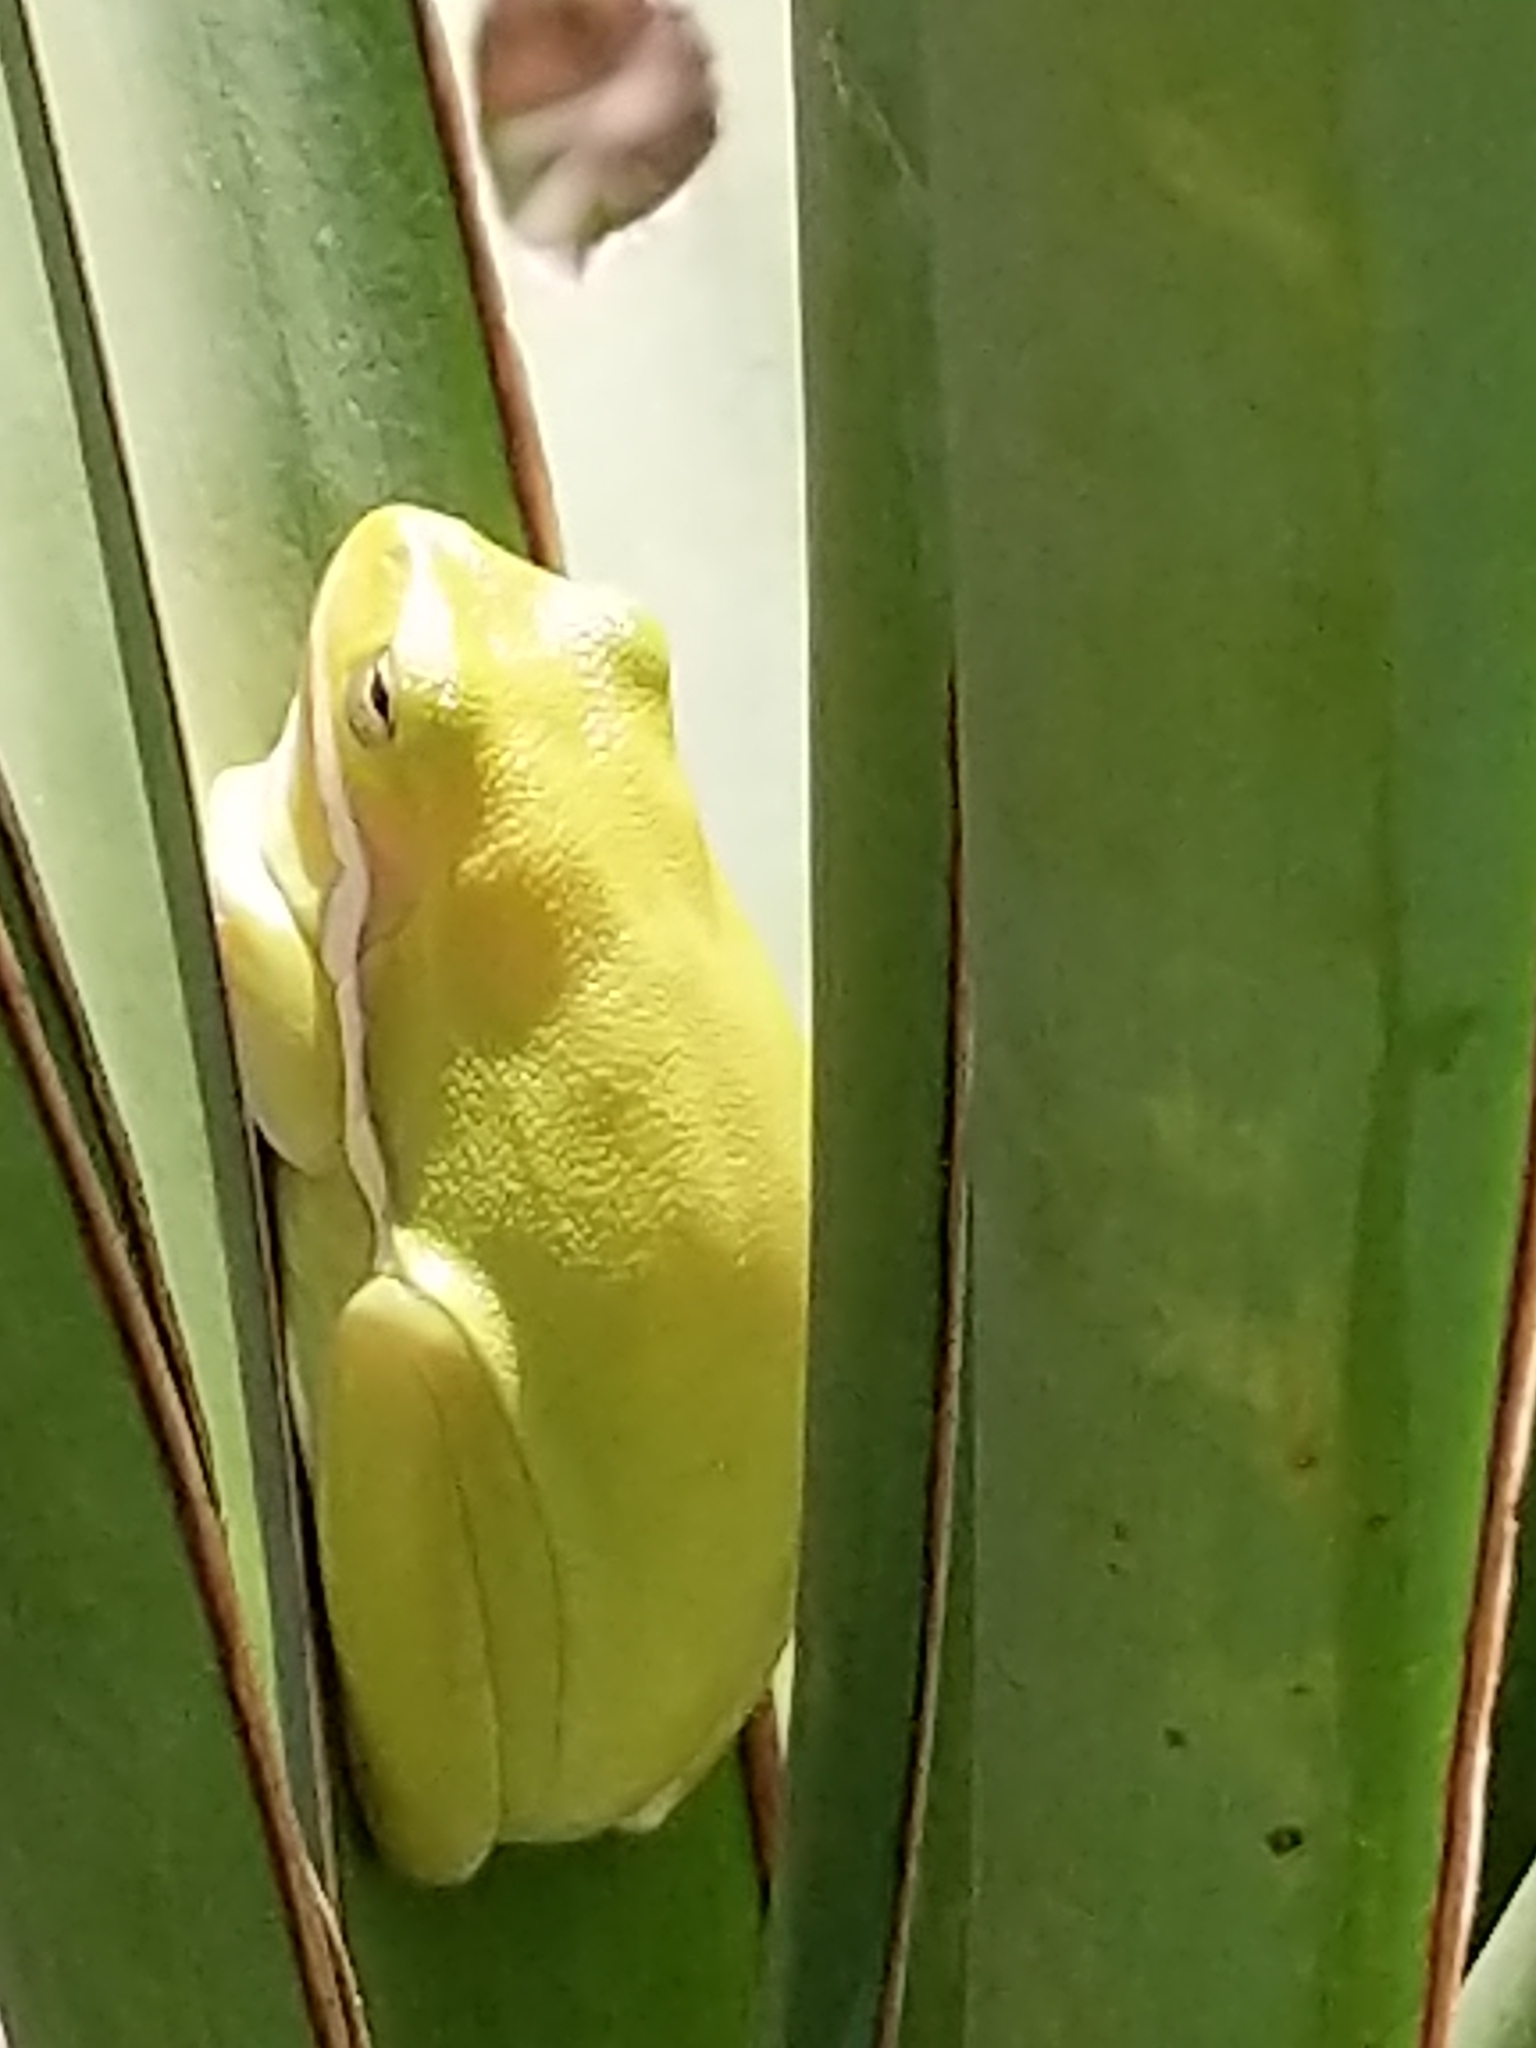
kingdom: Animalia
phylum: Chordata
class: Amphibia
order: Anura
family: Hylidae
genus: Dryophytes
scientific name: Dryophytes cinereus
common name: Green treefrog
